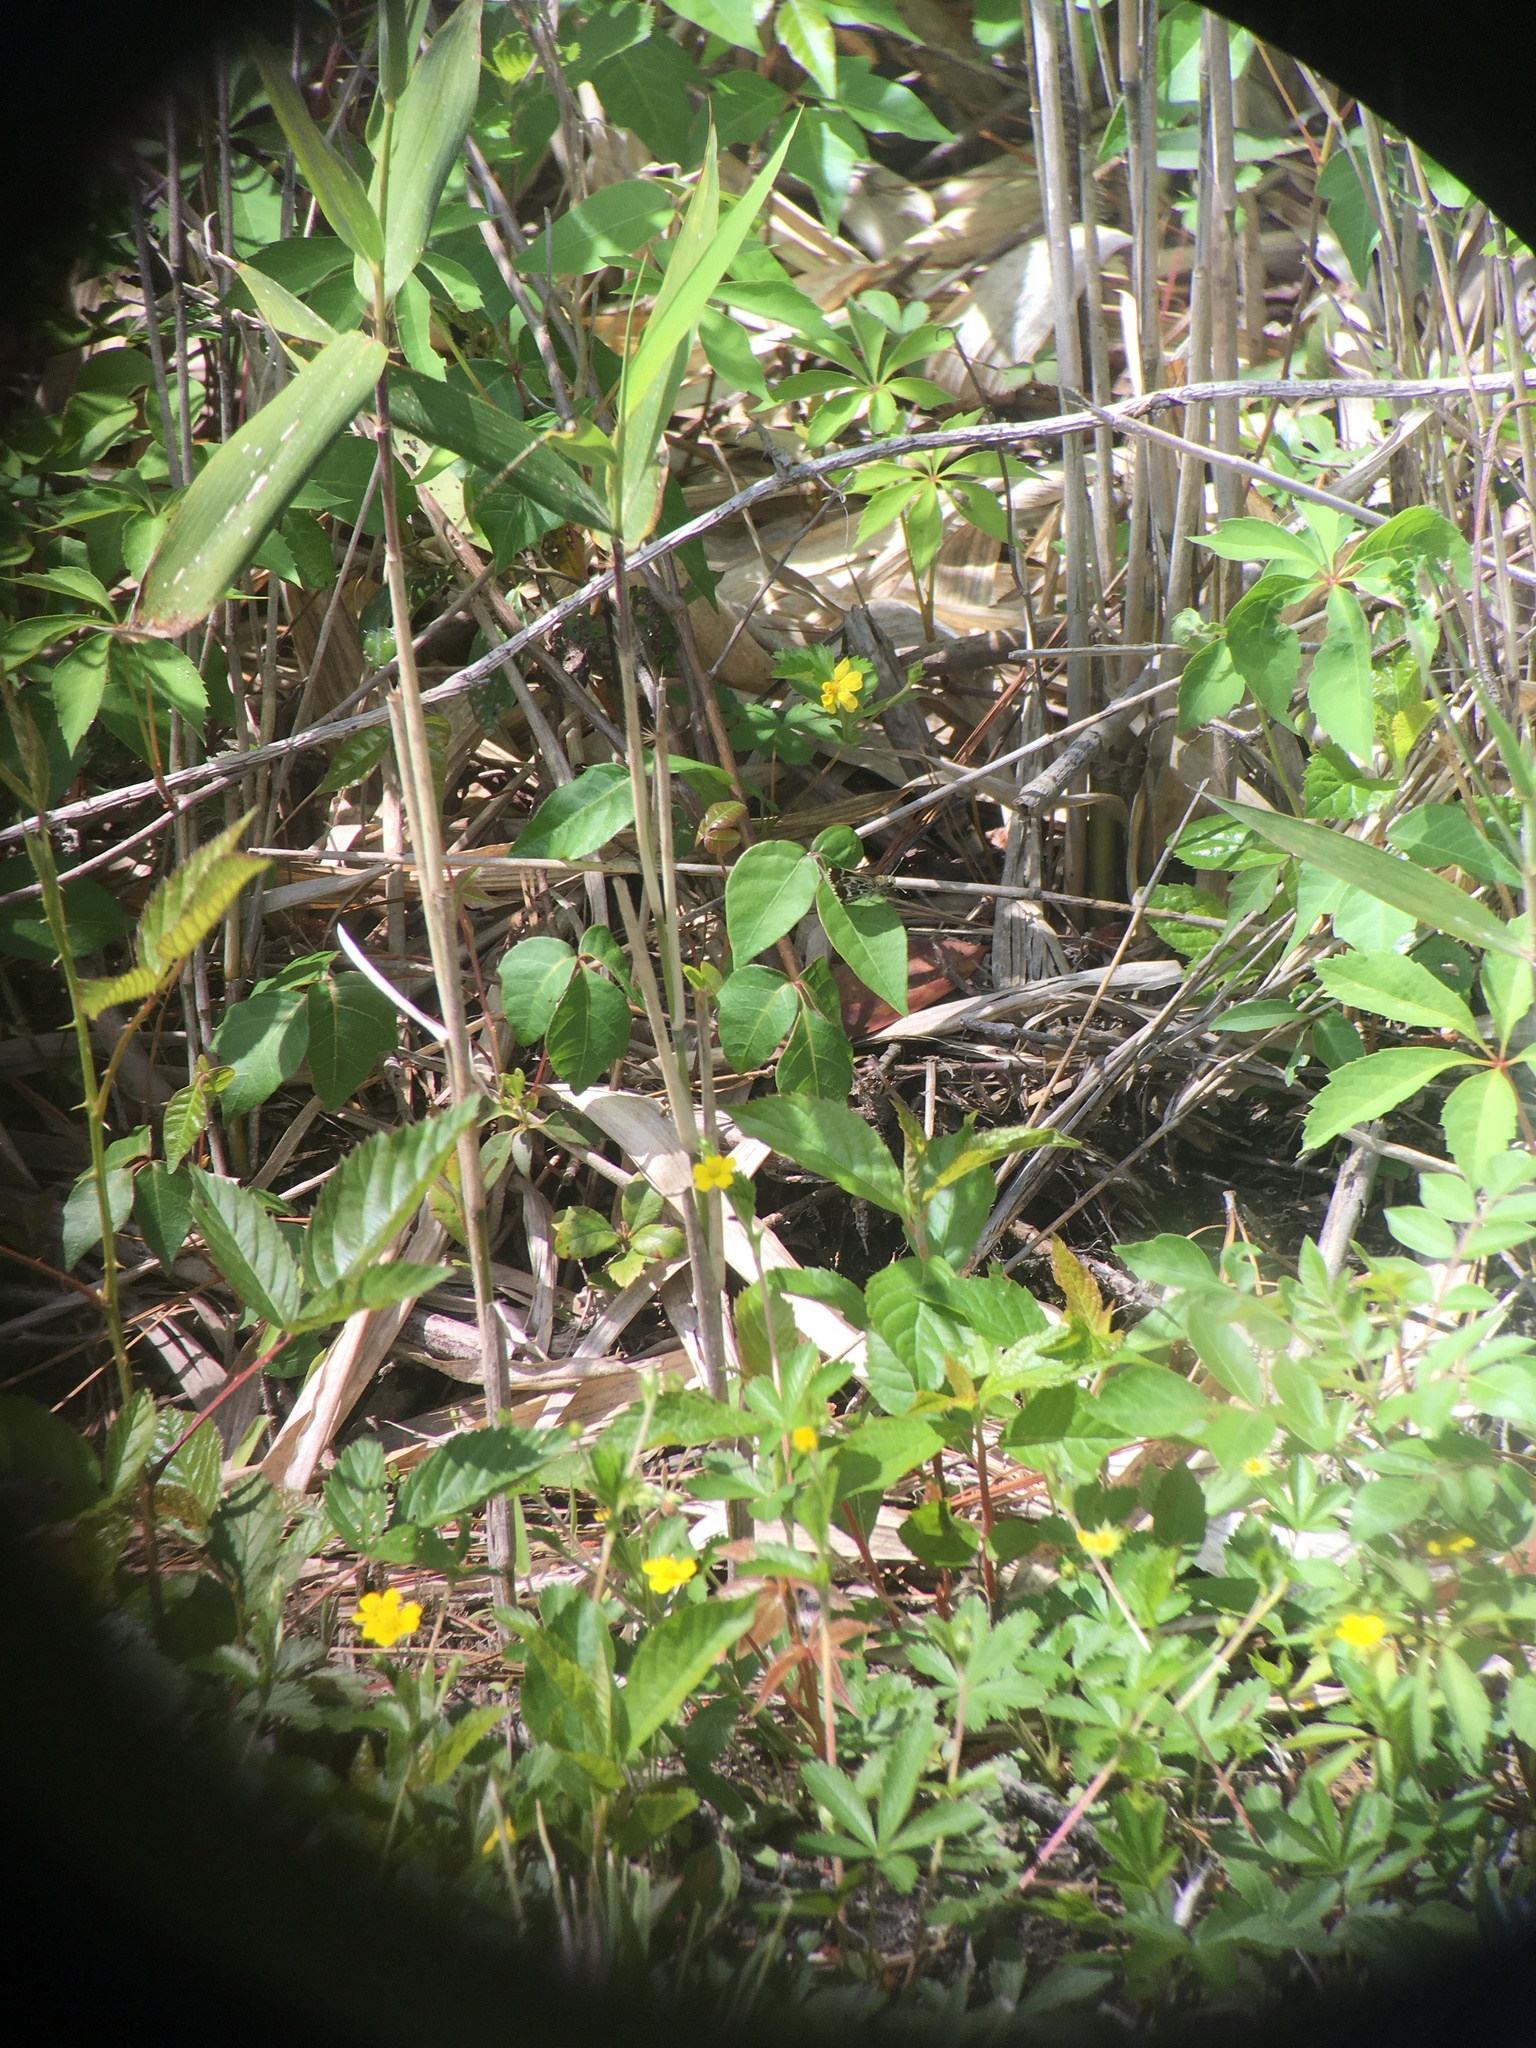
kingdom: Animalia
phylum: Arthropoda
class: Insecta
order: Lepidoptera
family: Hesperiidae
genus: Mastor
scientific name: Mastor aesculapius
